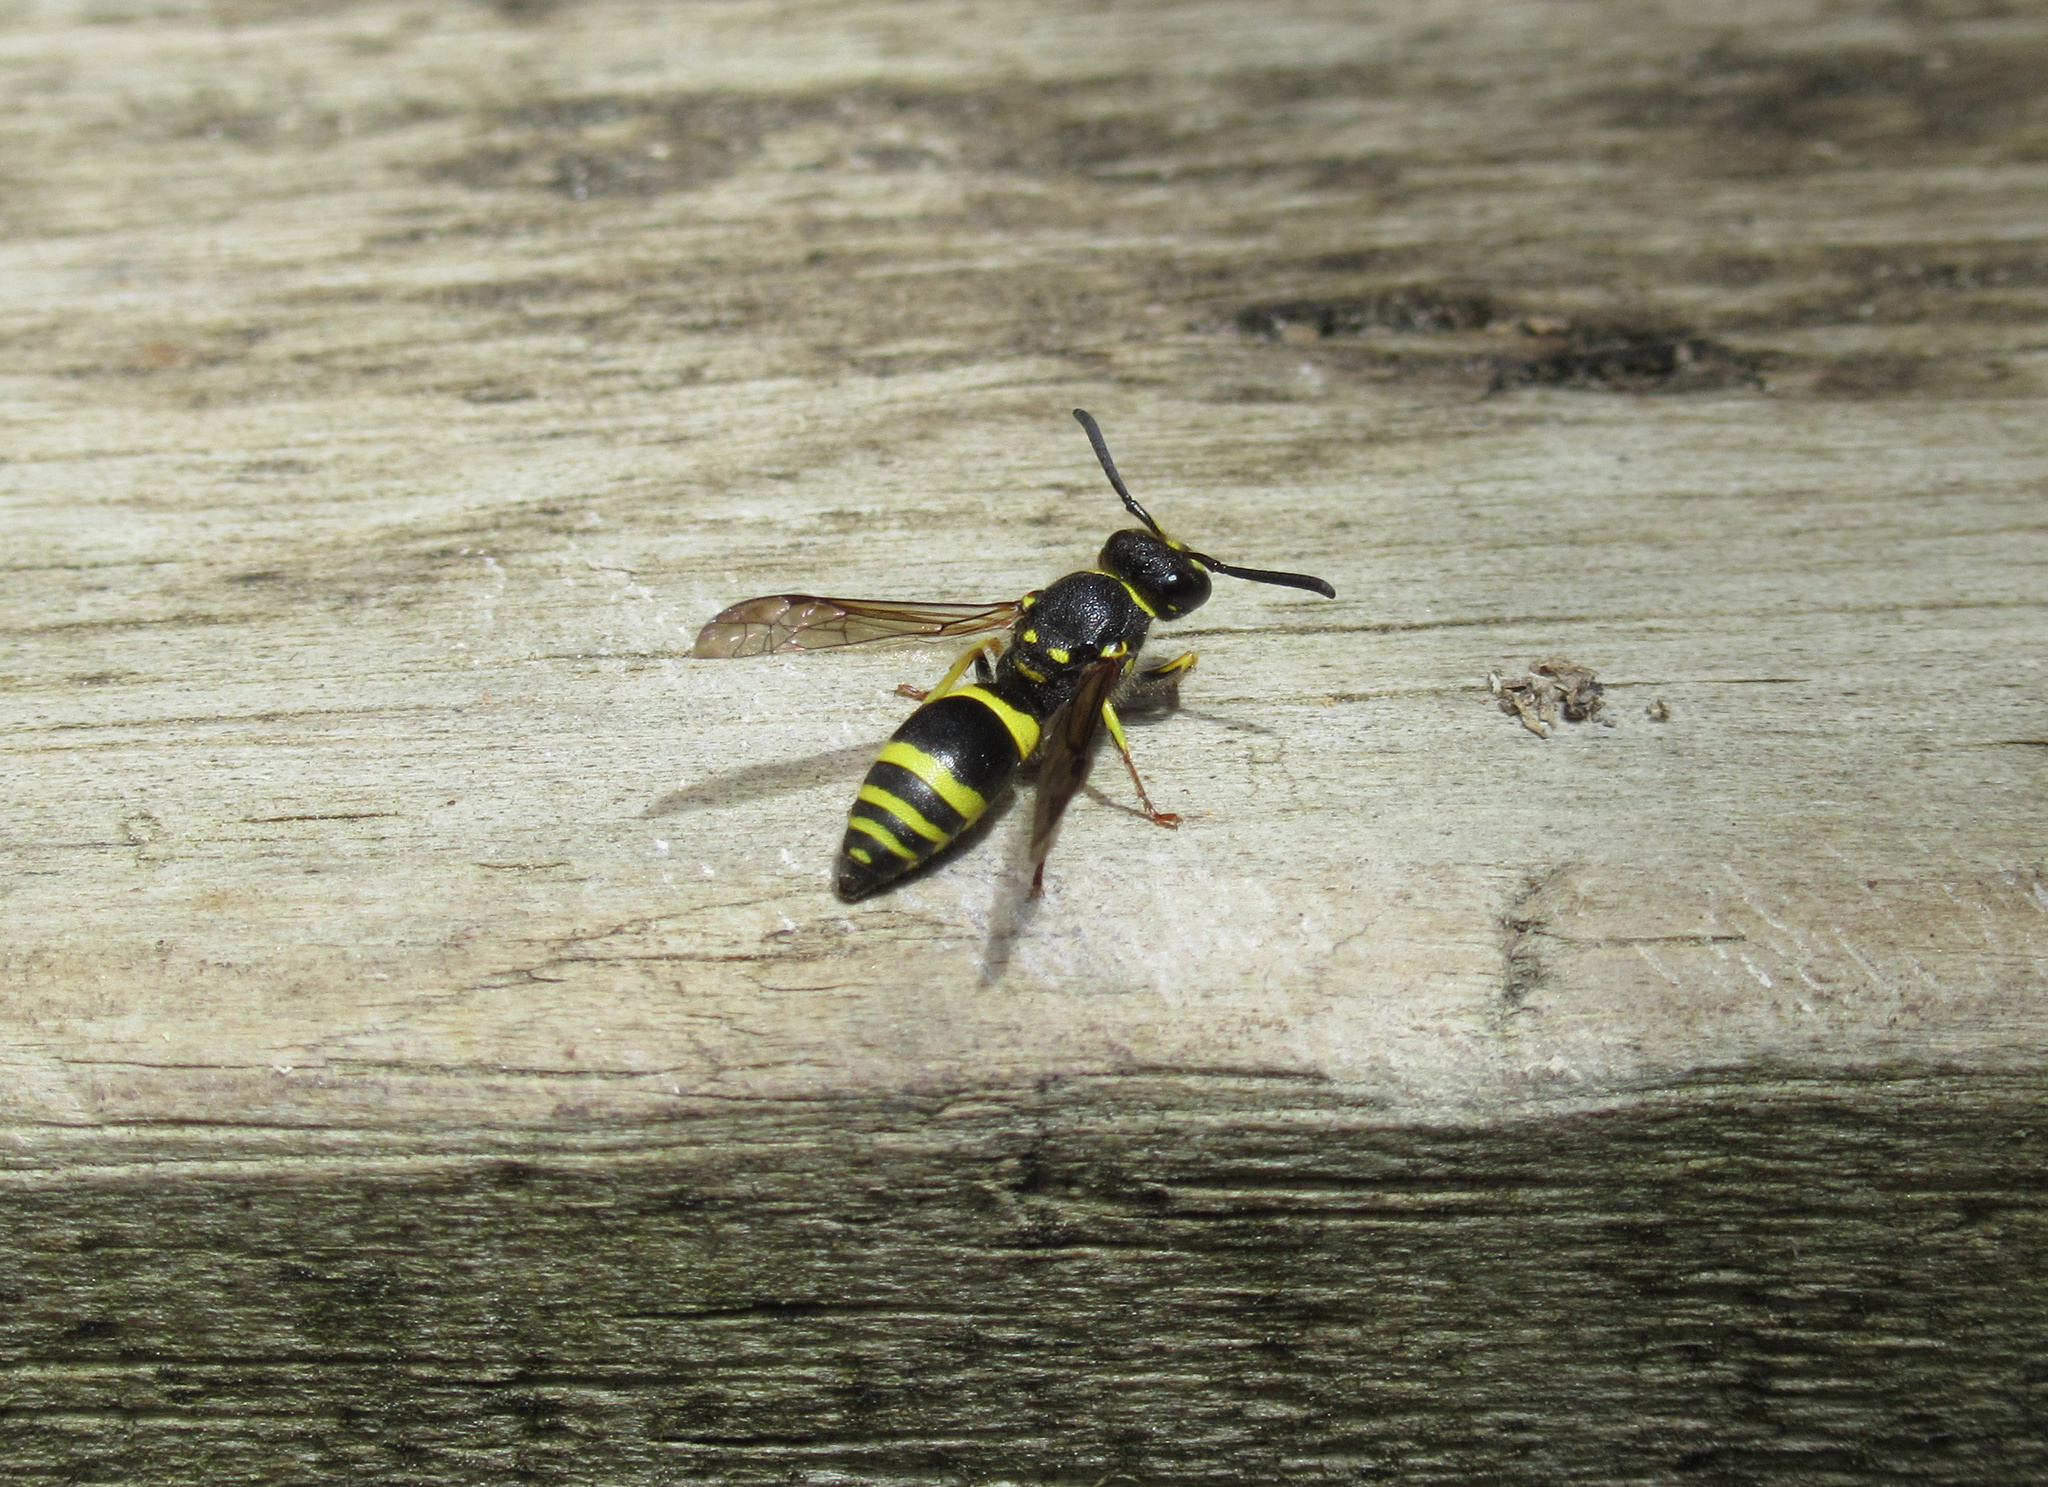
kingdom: Animalia
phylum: Arthropoda
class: Insecta
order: Hymenoptera
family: Vespidae
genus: Ancistrocerus
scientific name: Ancistrocerus gazella
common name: European tube wasp
